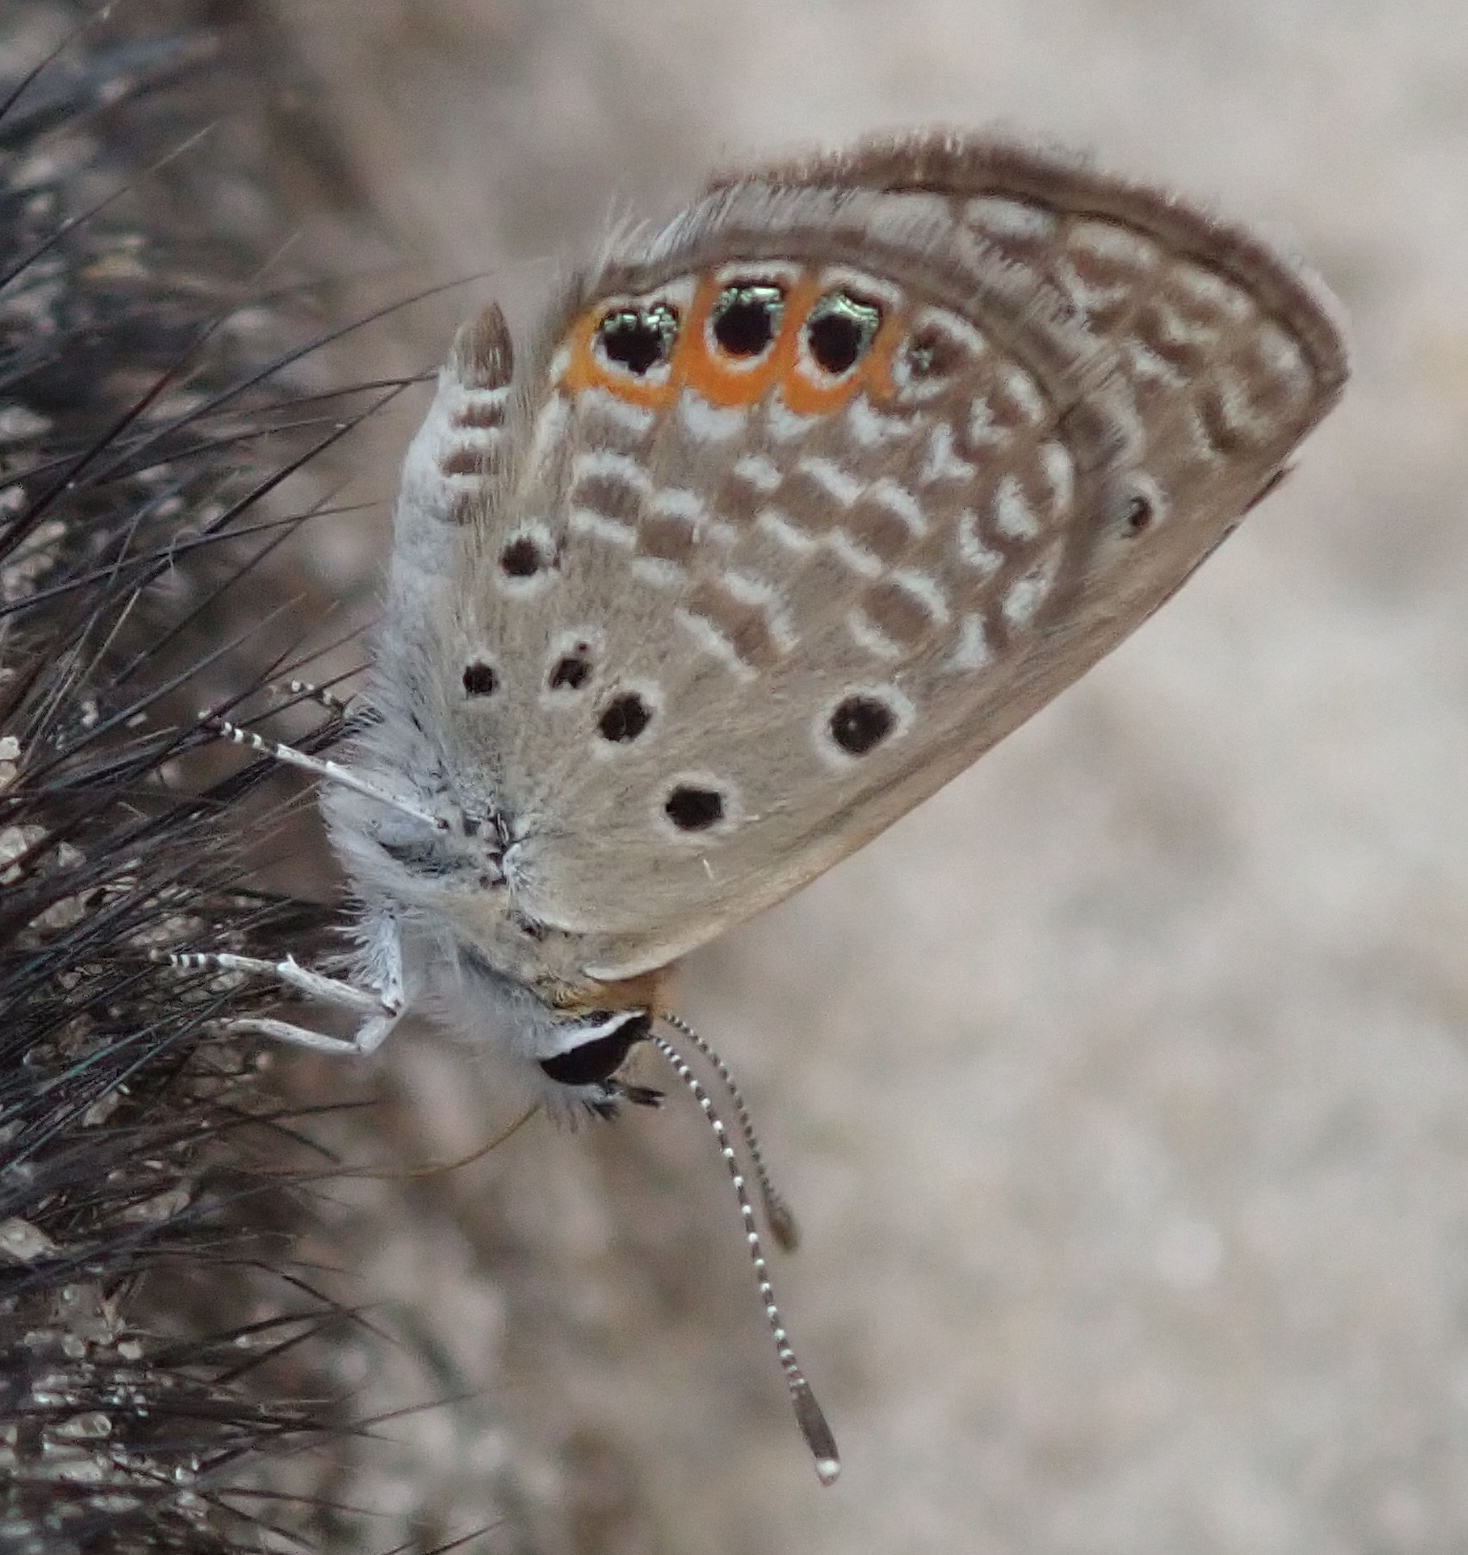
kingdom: Animalia
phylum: Arthropoda
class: Insecta
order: Lepidoptera
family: Lycaenidae
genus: Freyeria
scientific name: Freyeria trochylus
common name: Grass jewel
